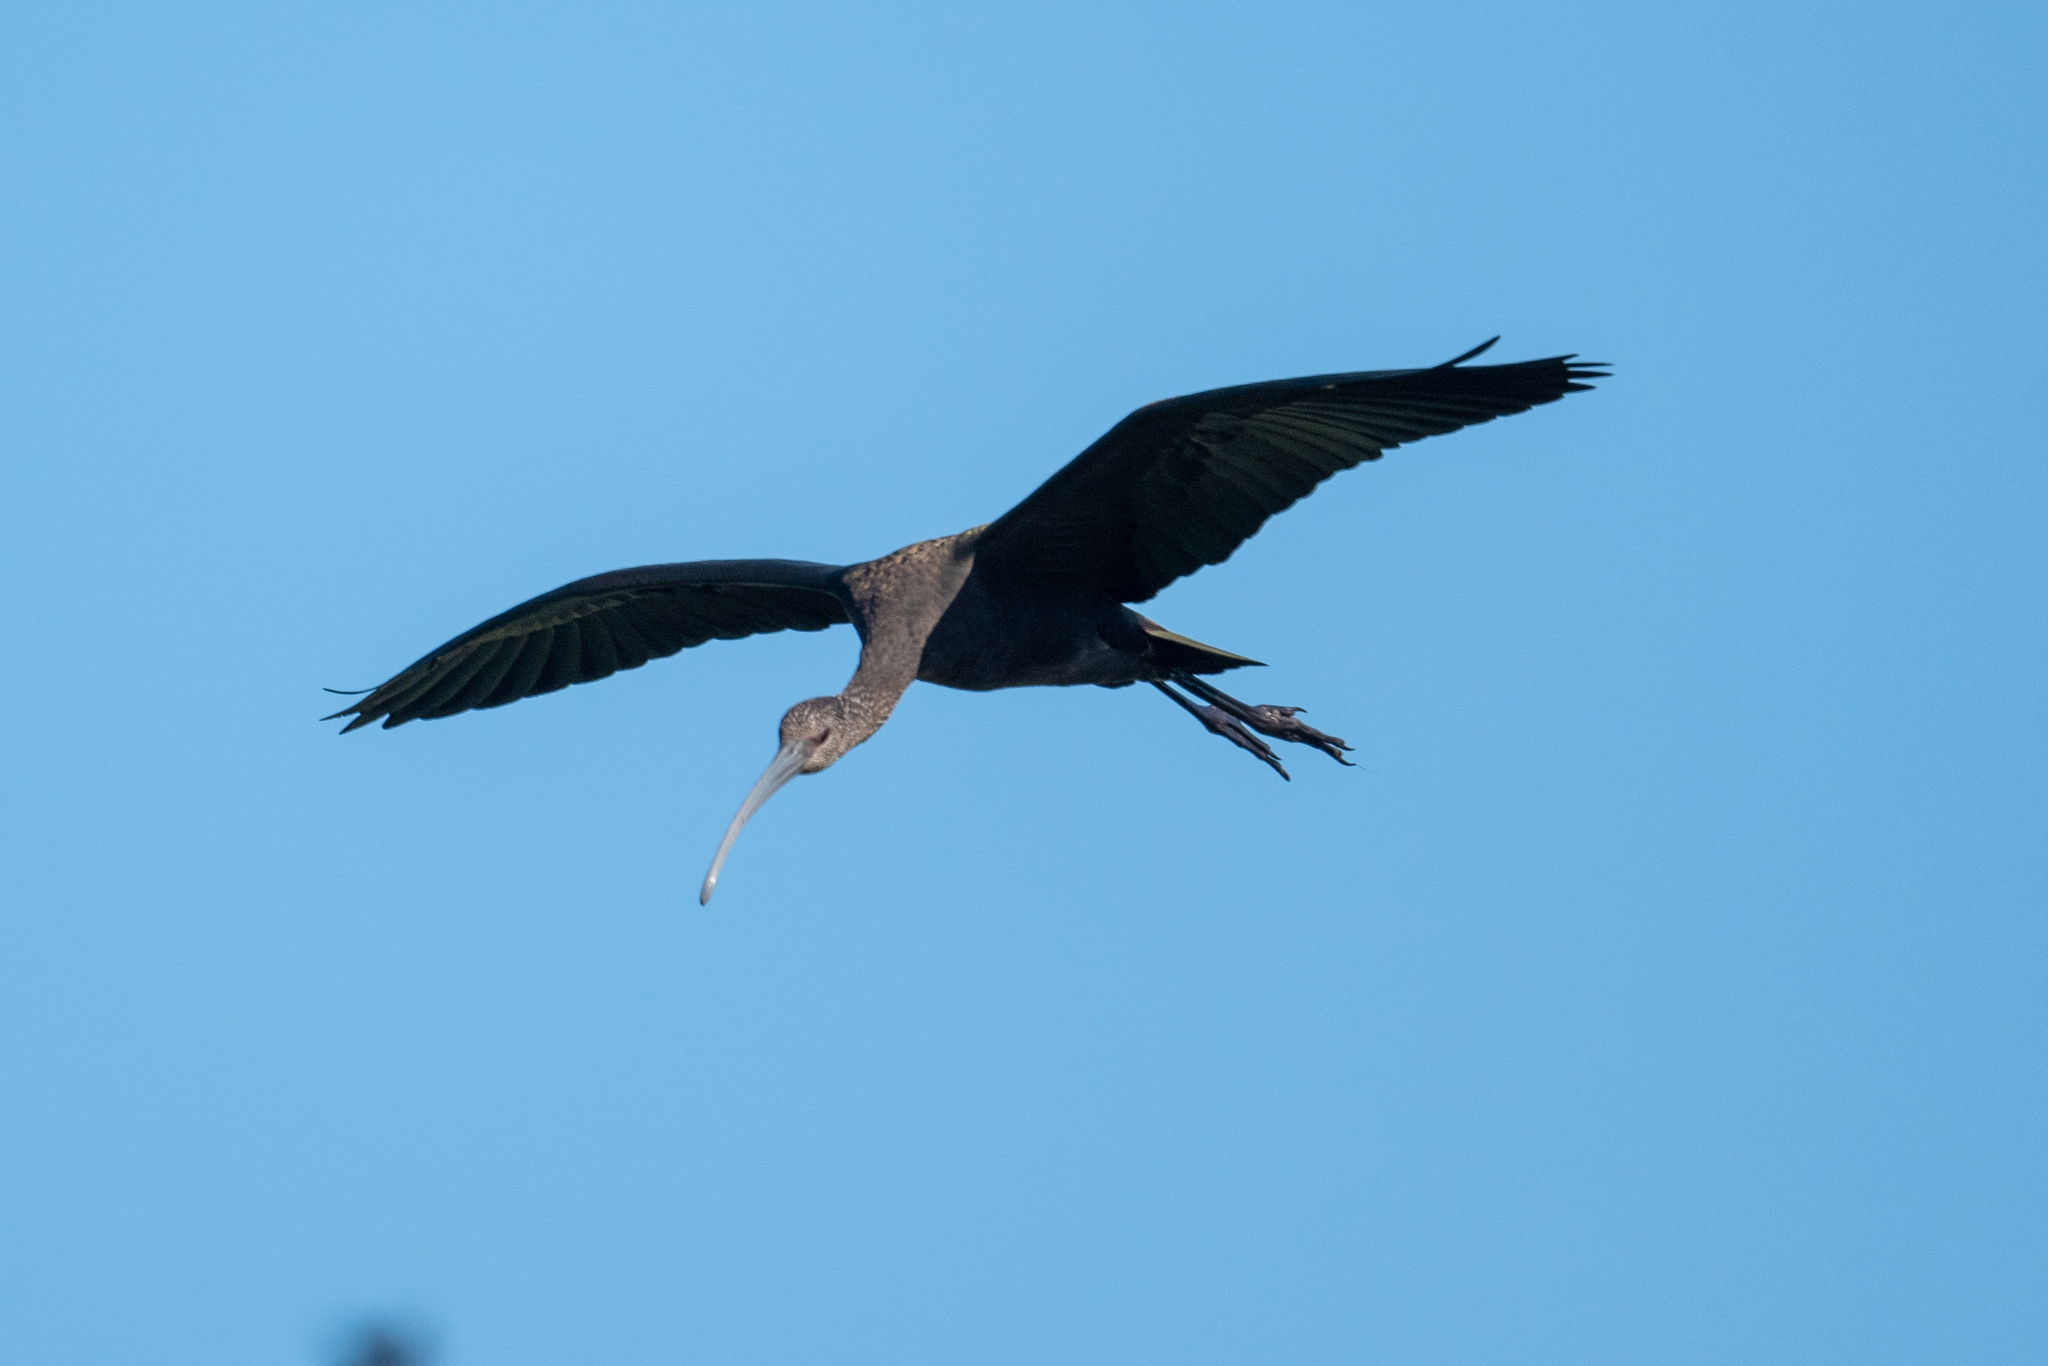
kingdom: Animalia
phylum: Chordata
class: Aves
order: Pelecaniformes
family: Threskiornithidae
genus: Plegadis
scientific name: Plegadis chihi
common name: White-faced ibis
